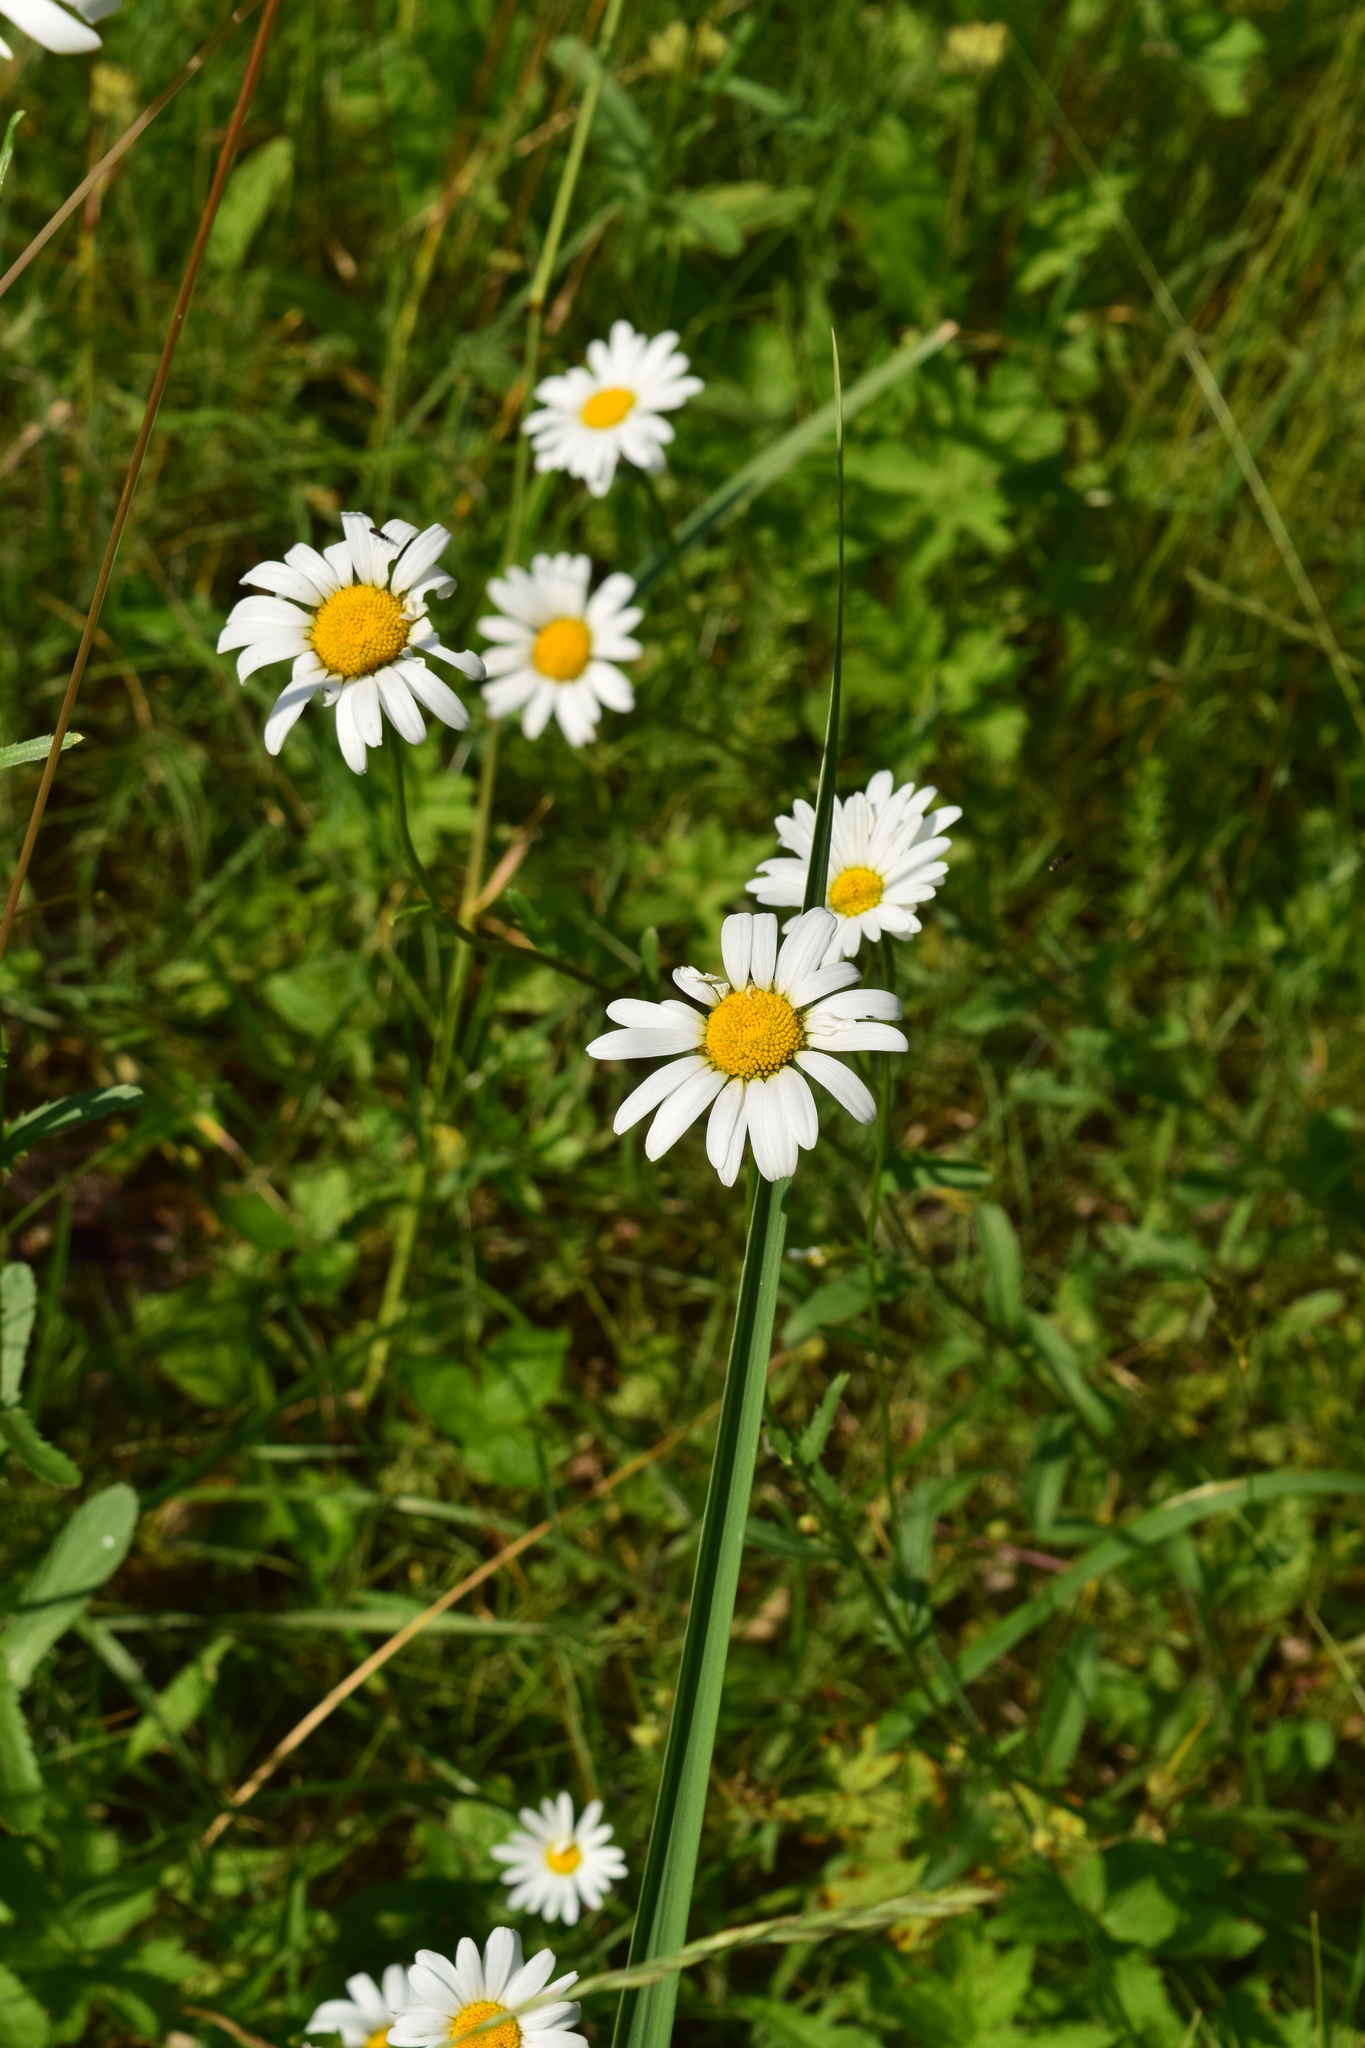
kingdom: Plantae
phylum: Tracheophyta
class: Magnoliopsida
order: Asterales
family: Asteraceae
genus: Leucanthemum
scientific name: Leucanthemum vulgare
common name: Oxeye daisy
